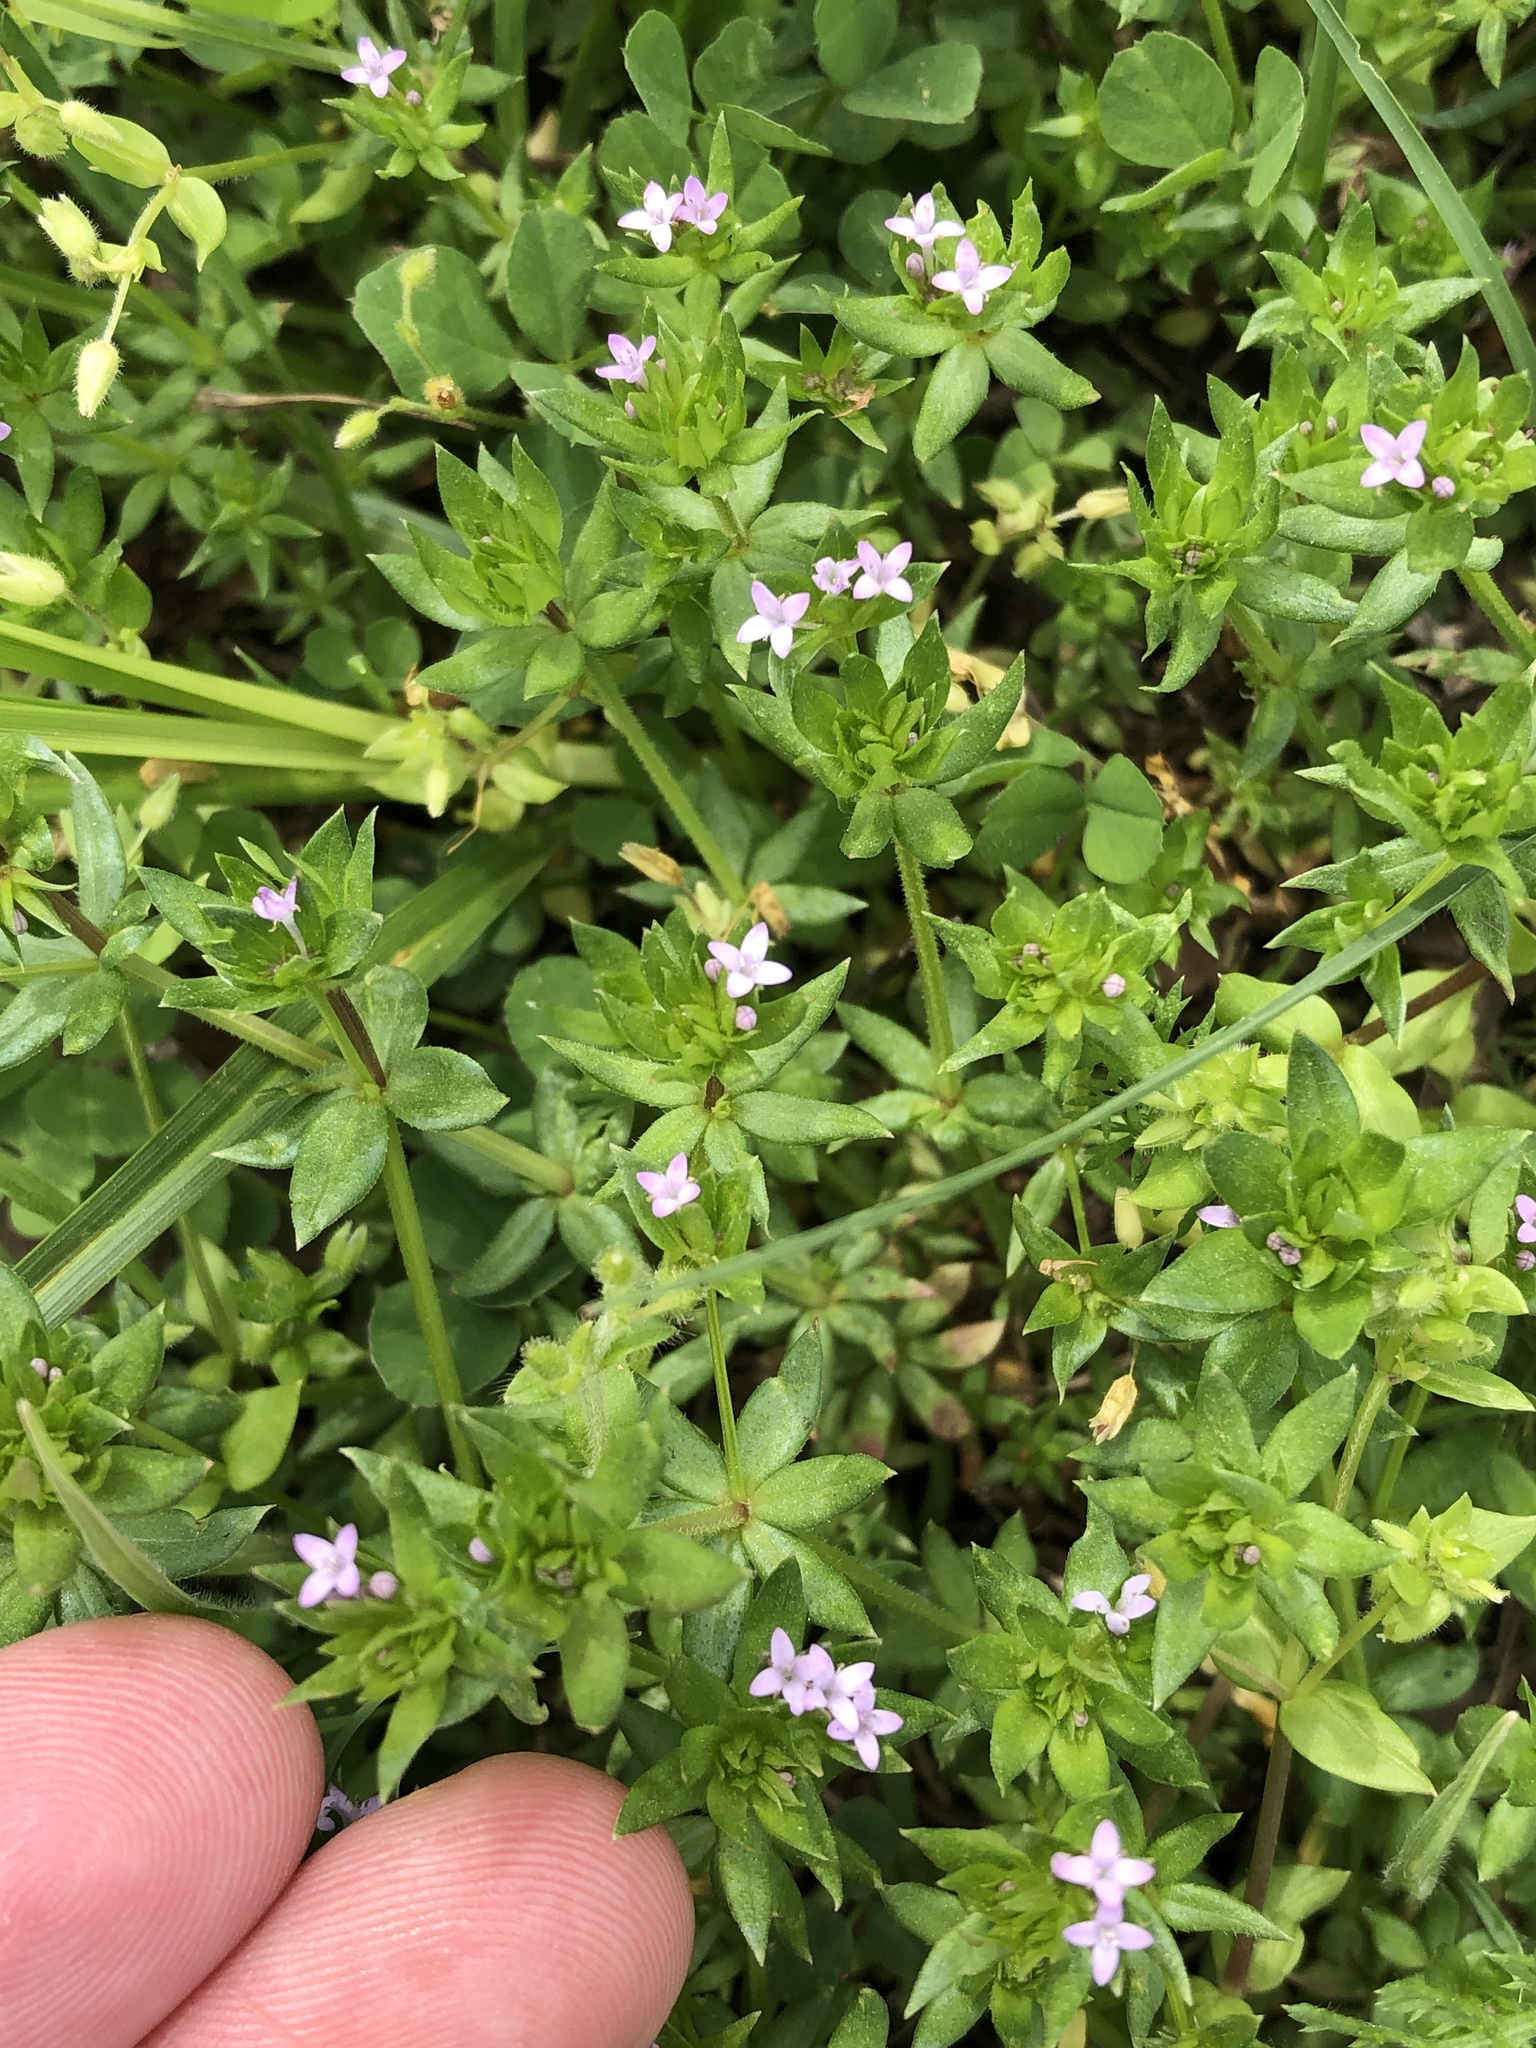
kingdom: Plantae
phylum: Tracheophyta
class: Magnoliopsida
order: Gentianales
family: Rubiaceae
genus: Sherardia
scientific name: Sherardia arvensis
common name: Field madder
